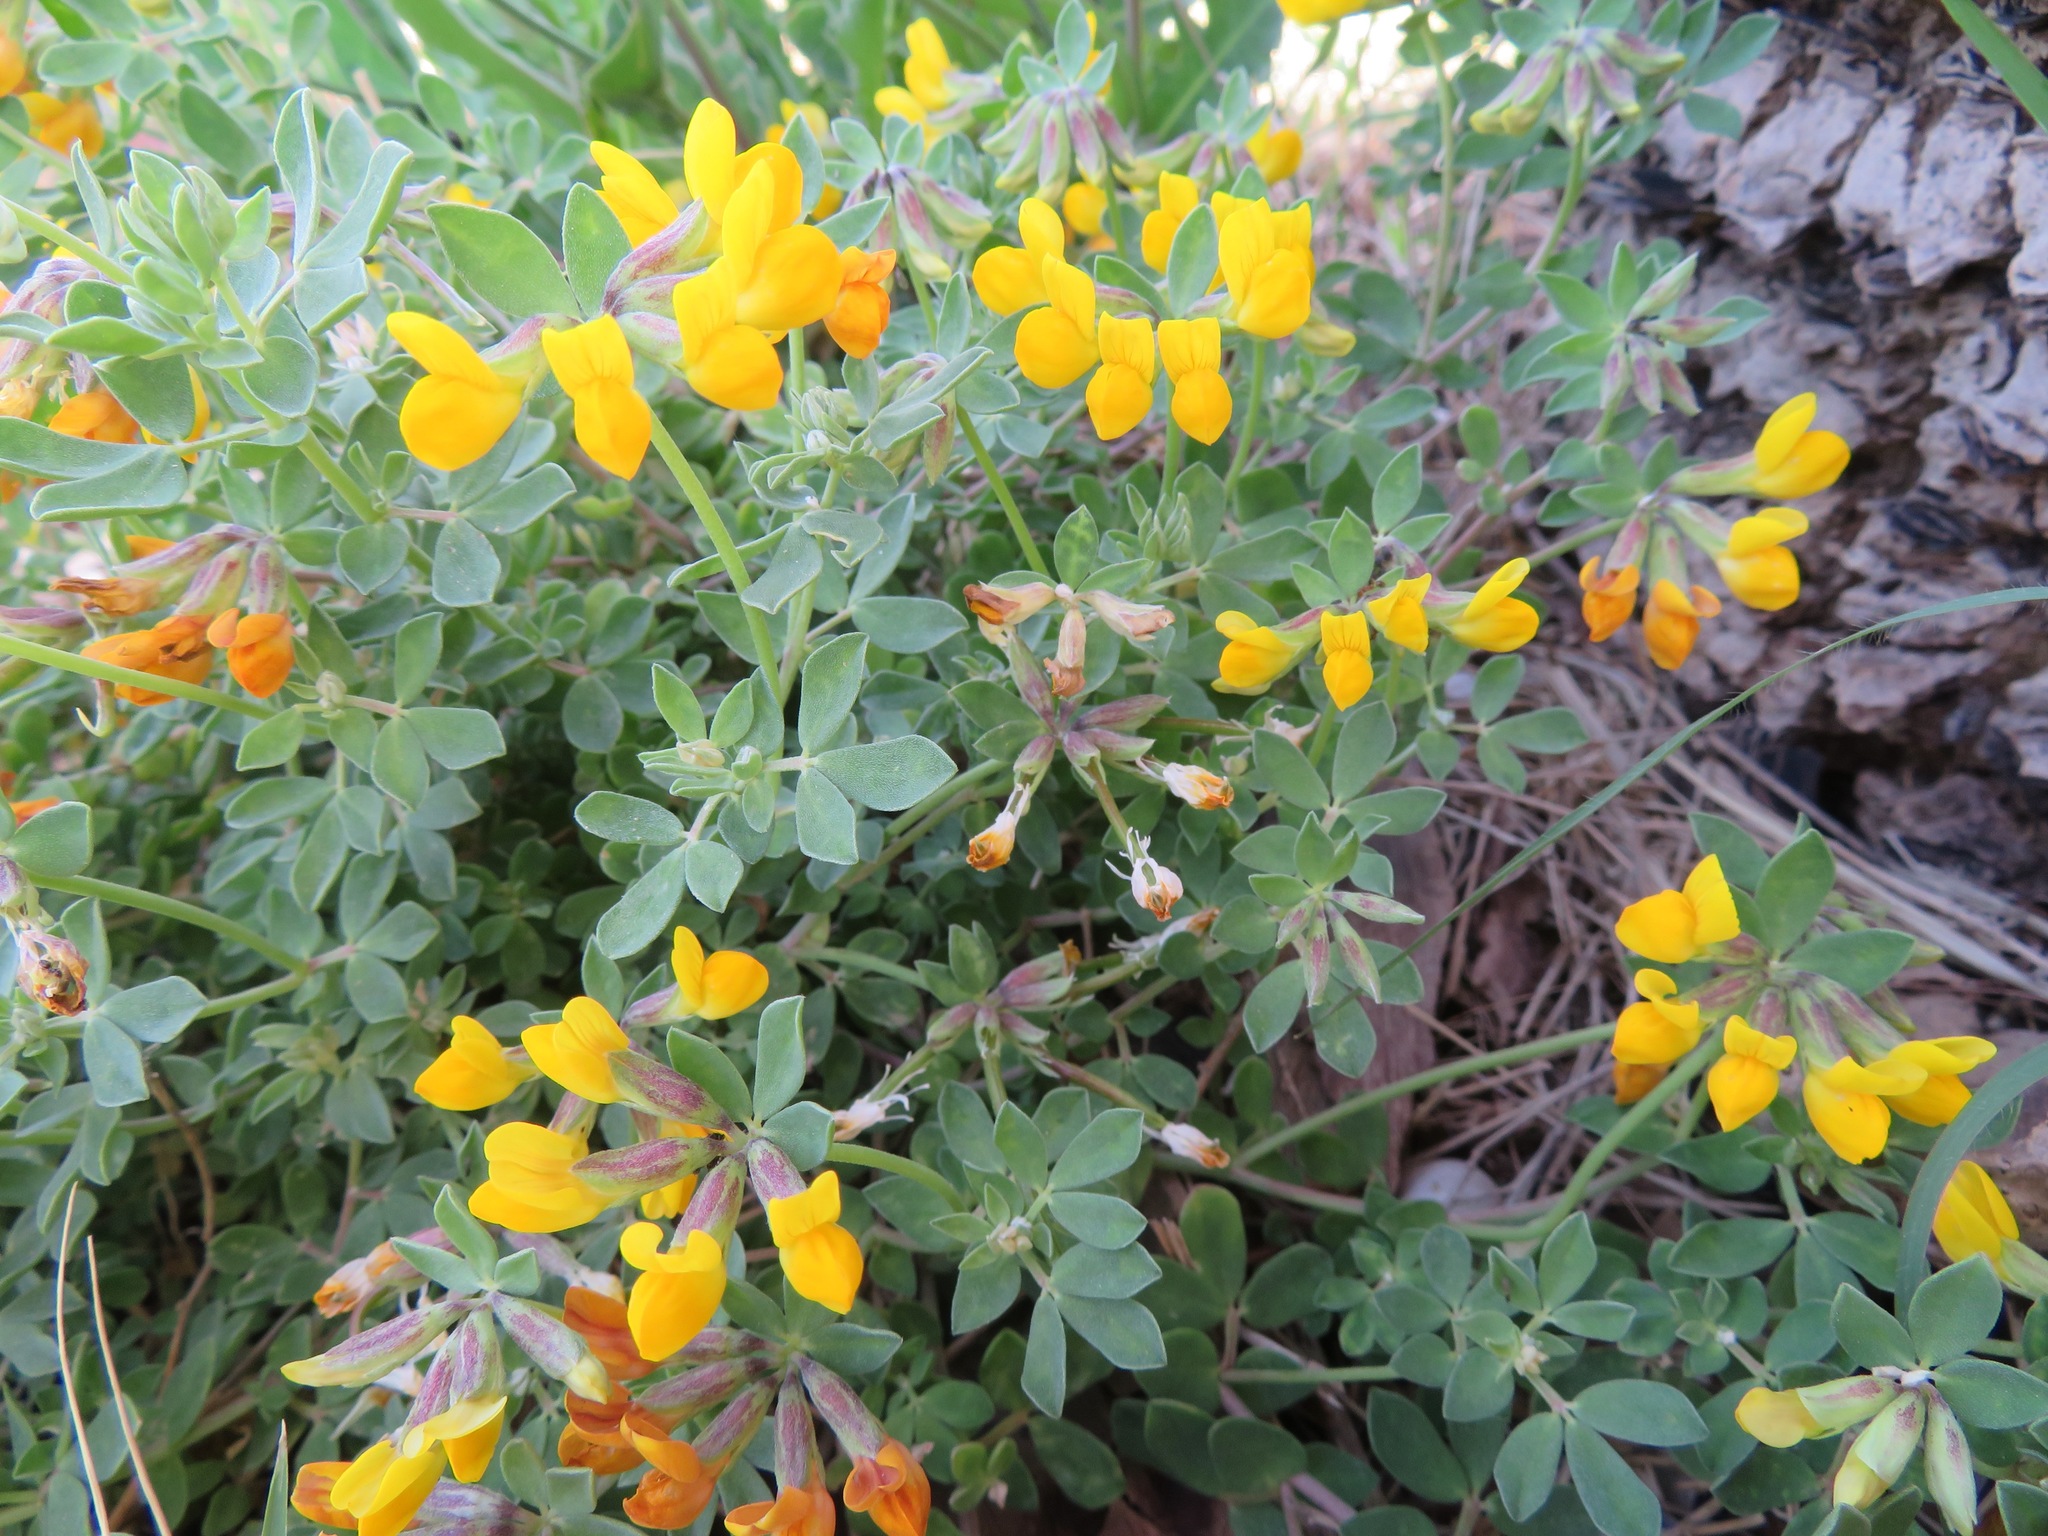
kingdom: Plantae
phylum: Tracheophyta
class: Magnoliopsida
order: Fabales
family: Fabaceae
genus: Lotus
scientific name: Lotus cytisoides
